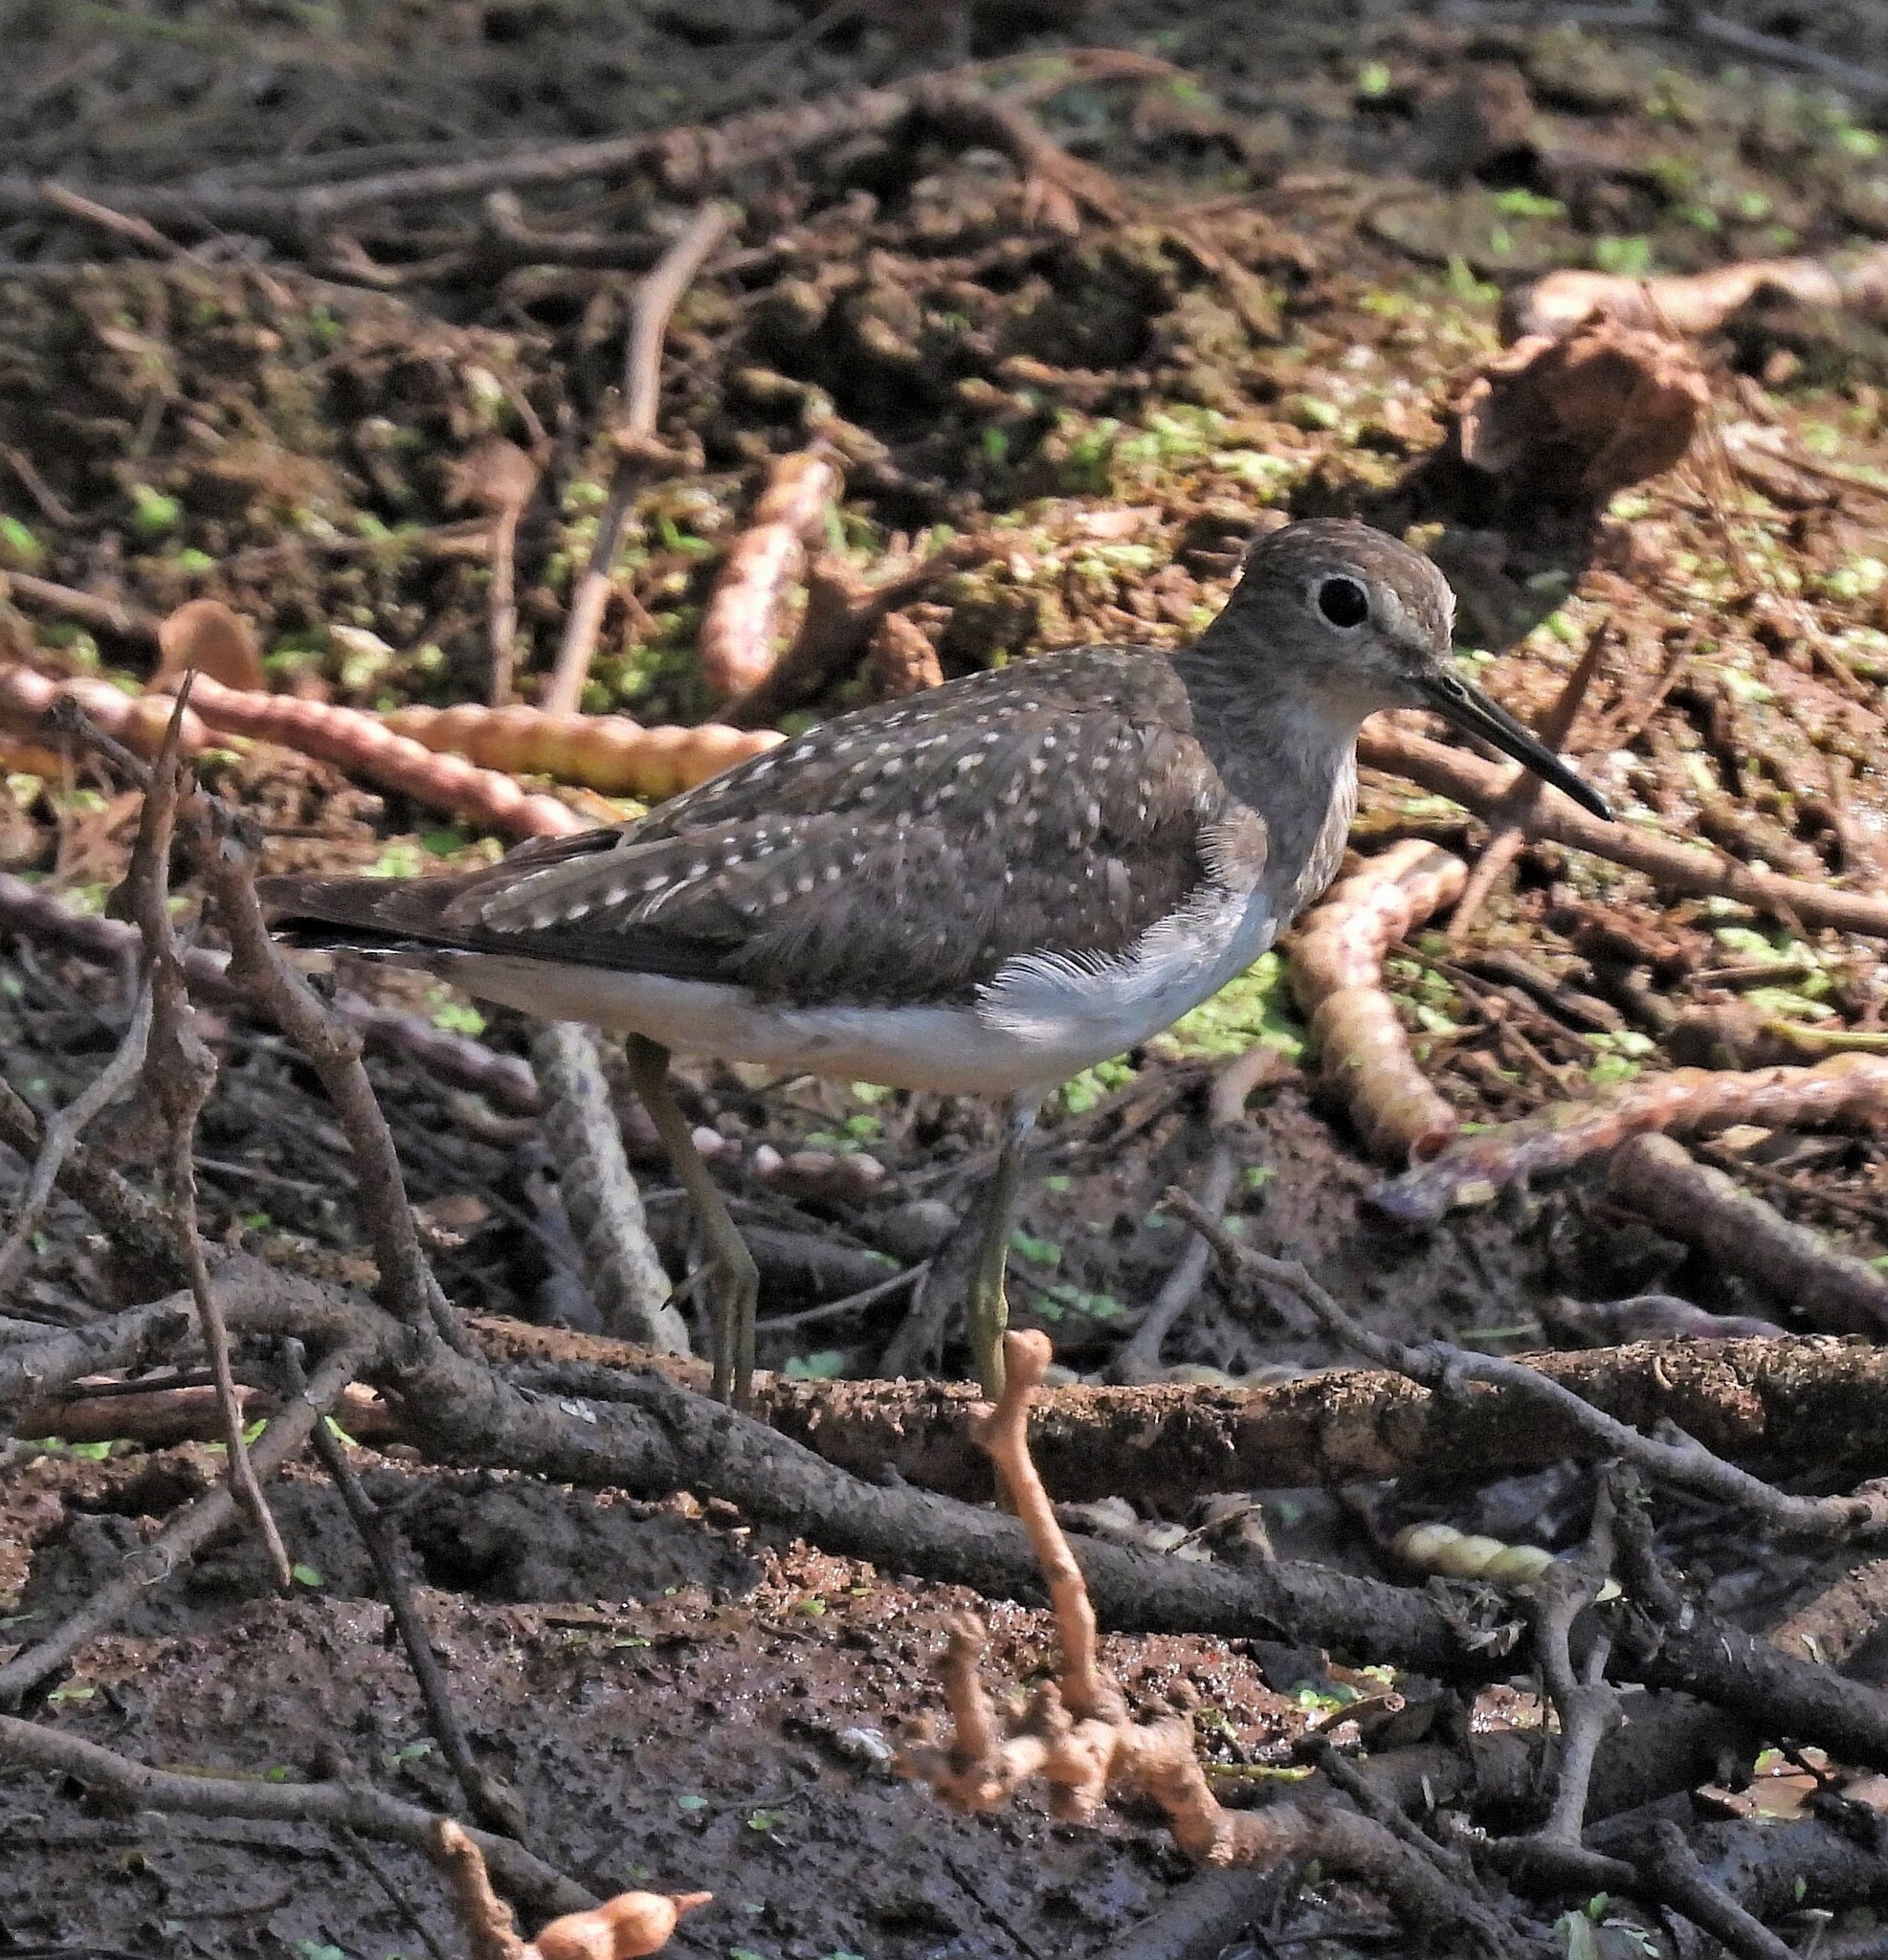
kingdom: Animalia
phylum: Chordata
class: Aves
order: Charadriiformes
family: Scolopacidae
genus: Tringa
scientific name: Tringa solitaria
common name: Solitary sandpiper
